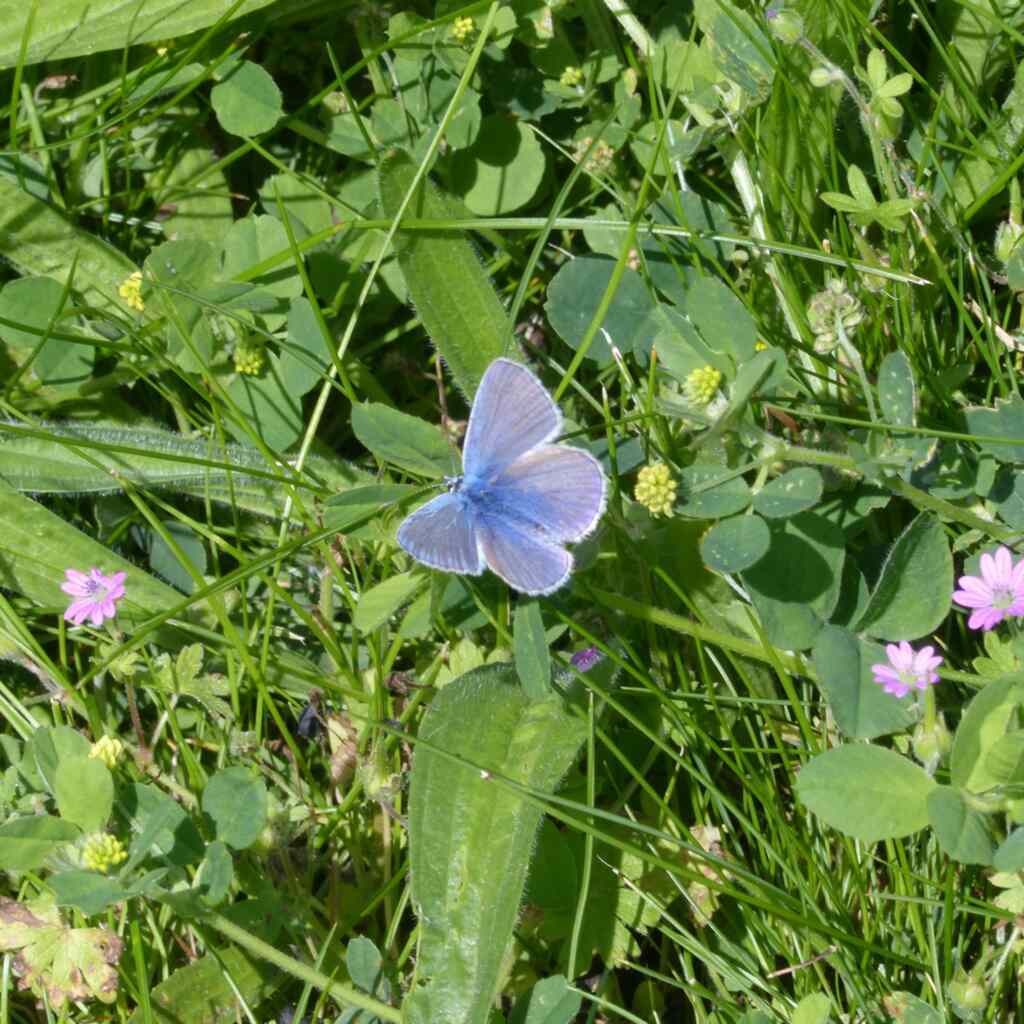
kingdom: Animalia
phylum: Arthropoda
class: Insecta
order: Lepidoptera
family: Lycaenidae
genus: Polyommatus
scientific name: Polyommatus icarus
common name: Common blue
